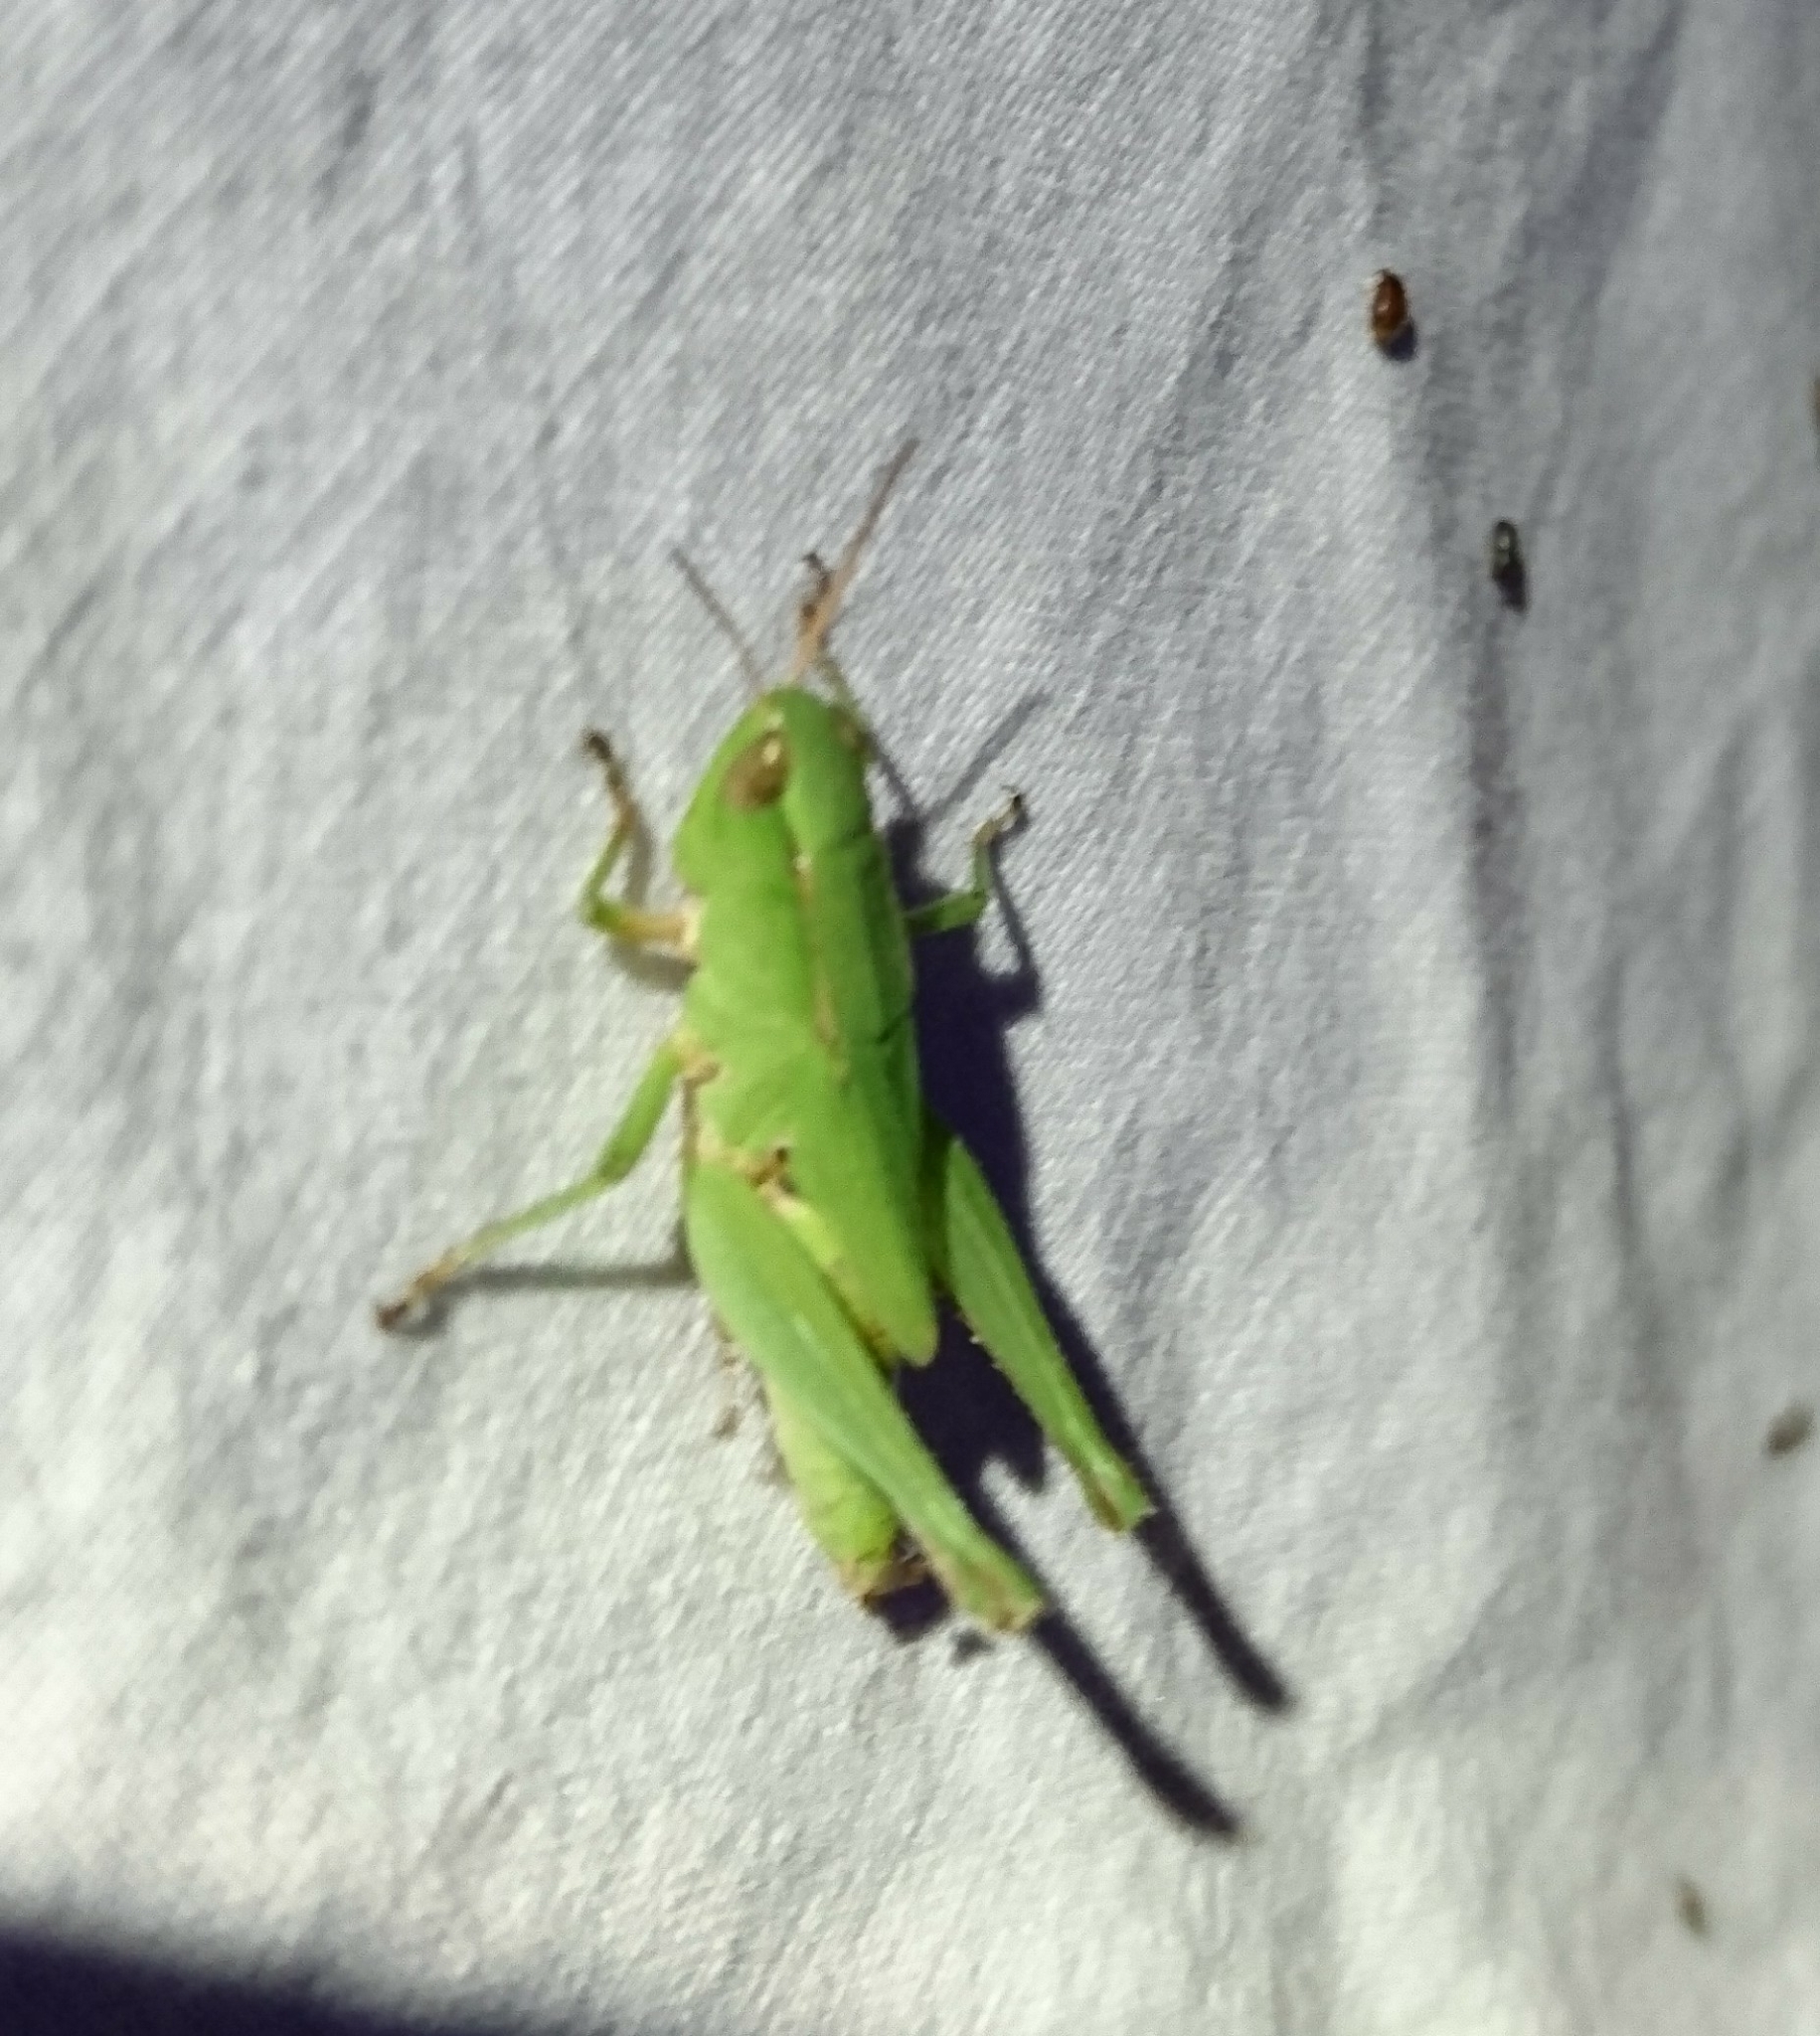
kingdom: Animalia
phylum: Arthropoda
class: Insecta
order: Orthoptera
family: Acrididae
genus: Dichromorpha
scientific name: Dichromorpha viridis
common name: Short-winged green grasshopper
